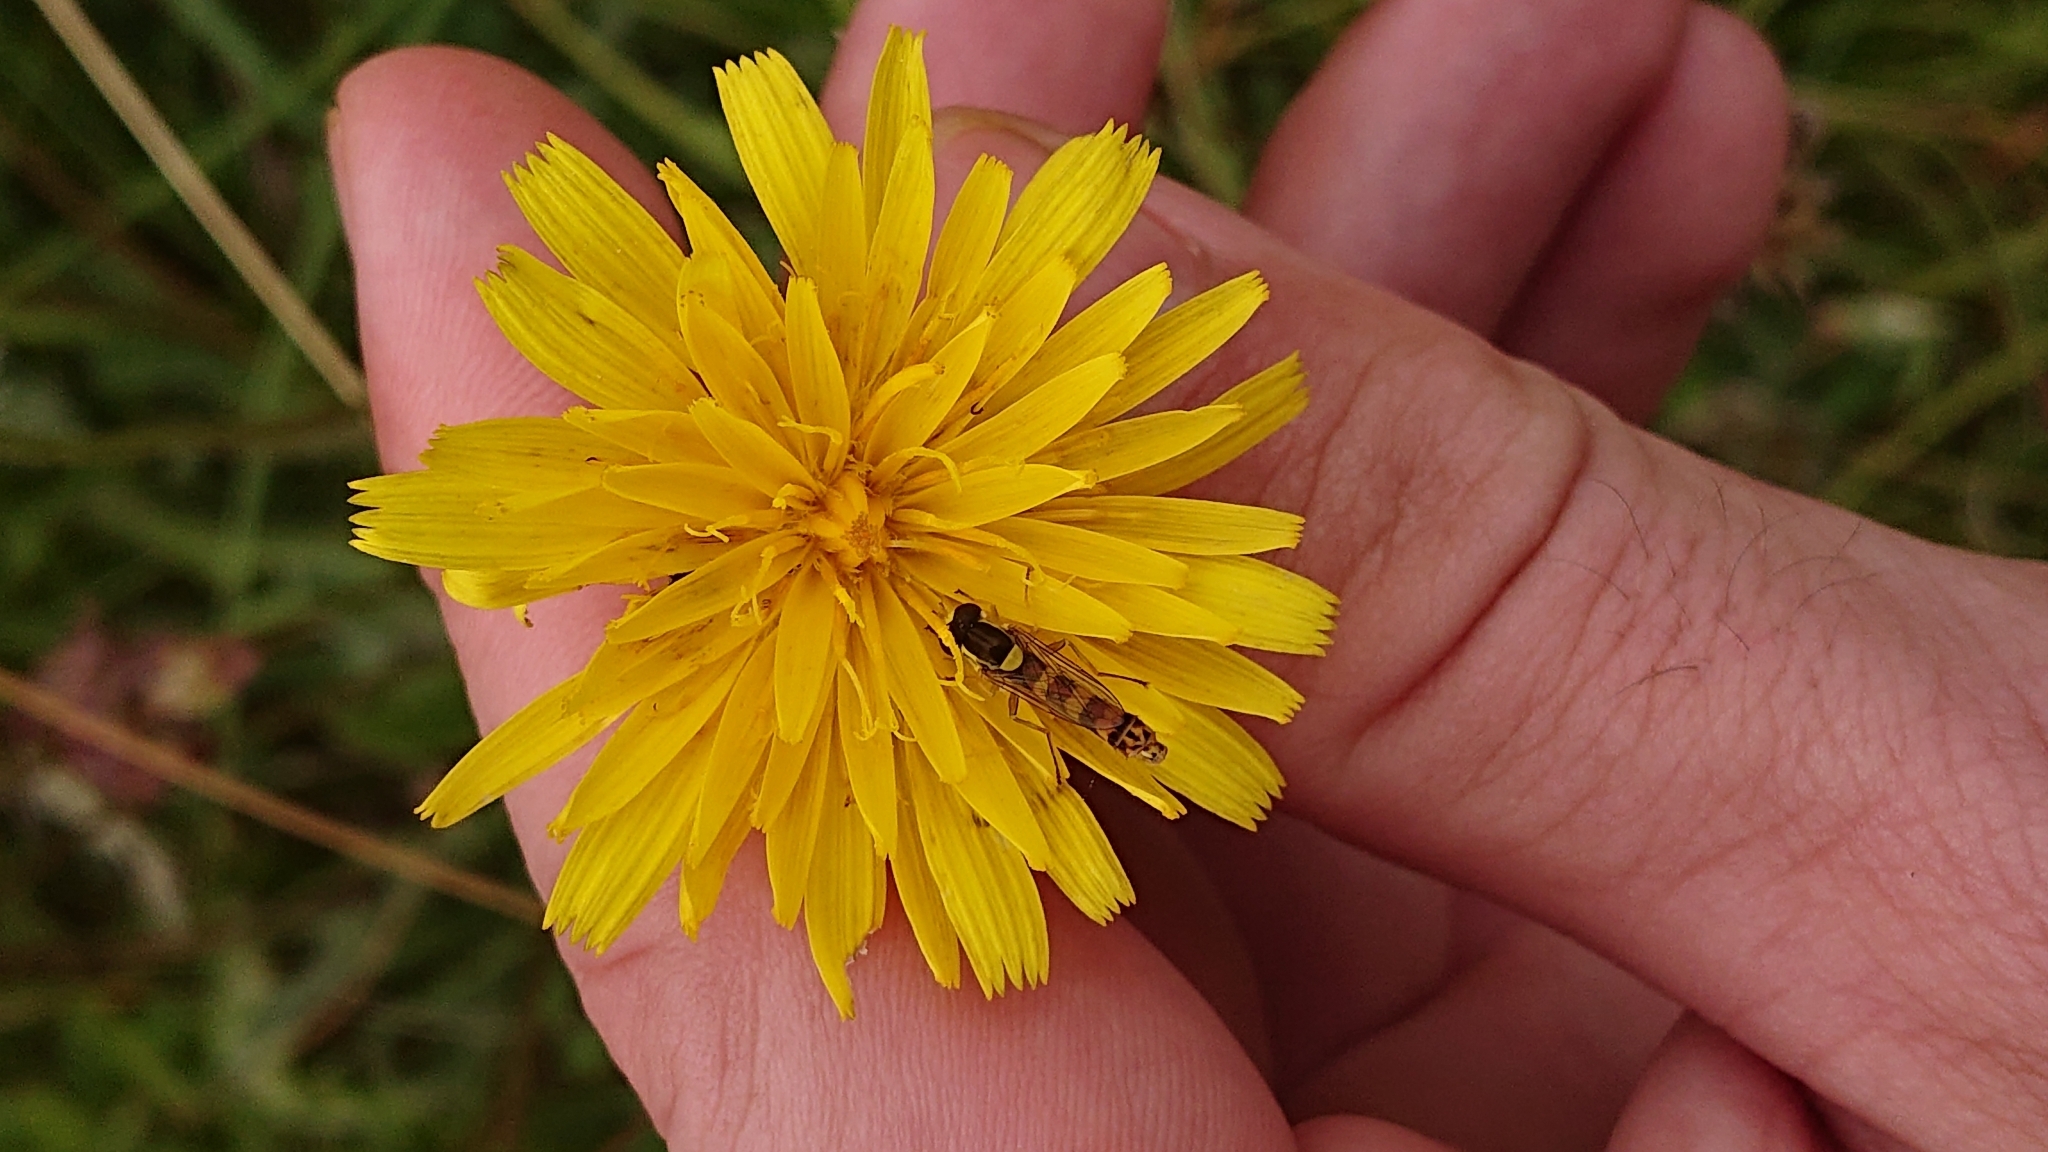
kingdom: Animalia
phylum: Arthropoda
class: Insecta
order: Diptera
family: Syrphidae
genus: Sphaerophoria
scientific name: Sphaerophoria scripta
